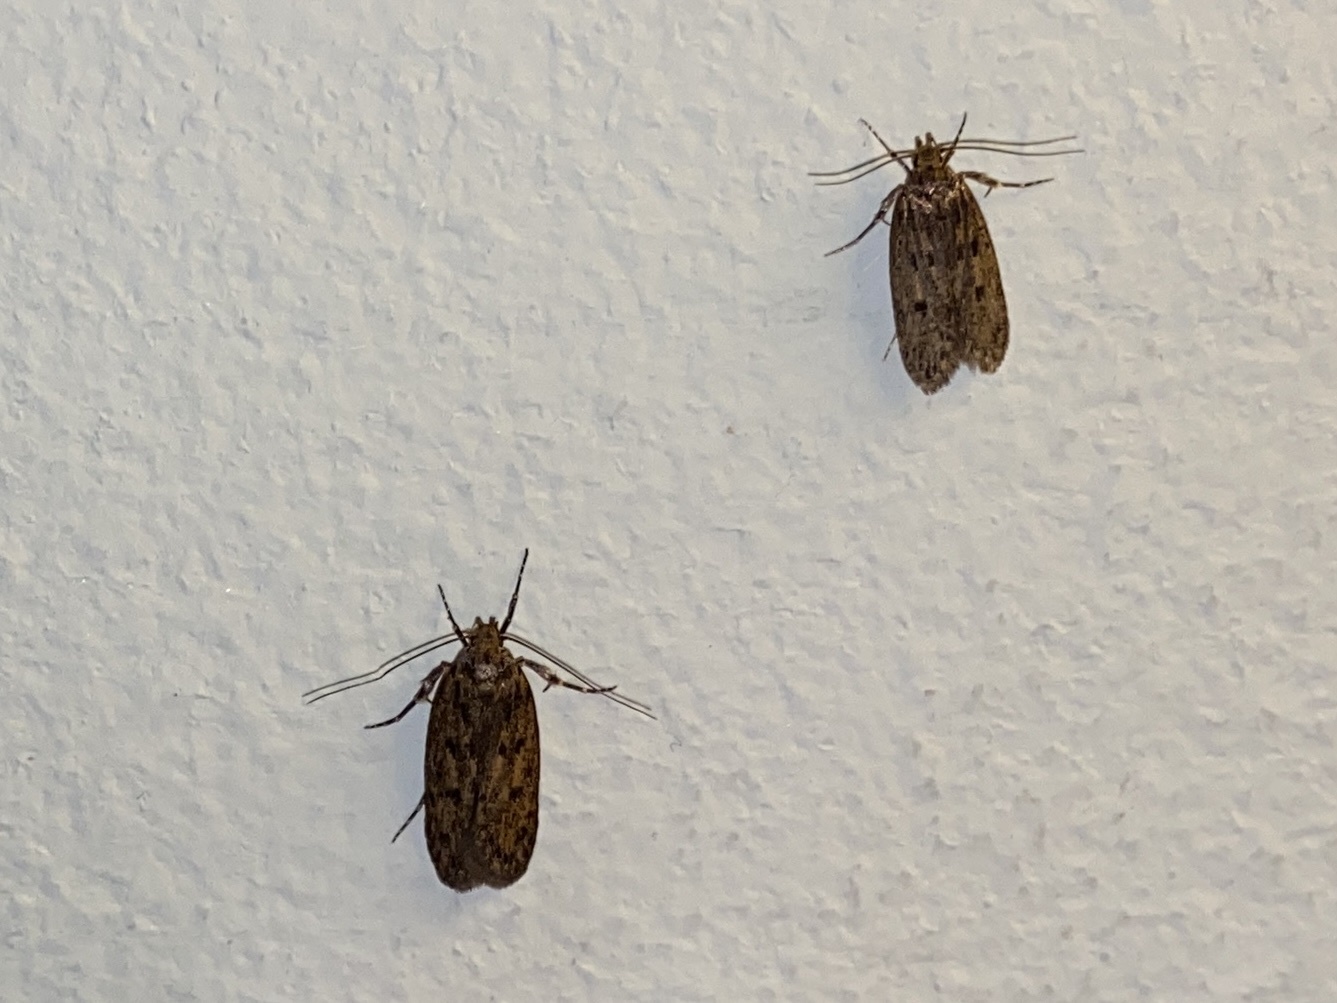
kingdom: Animalia
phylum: Arthropoda
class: Insecta
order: Lepidoptera
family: Oecophoridae
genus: Hofmannophila
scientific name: Hofmannophila pseudospretella
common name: Brown house moth
